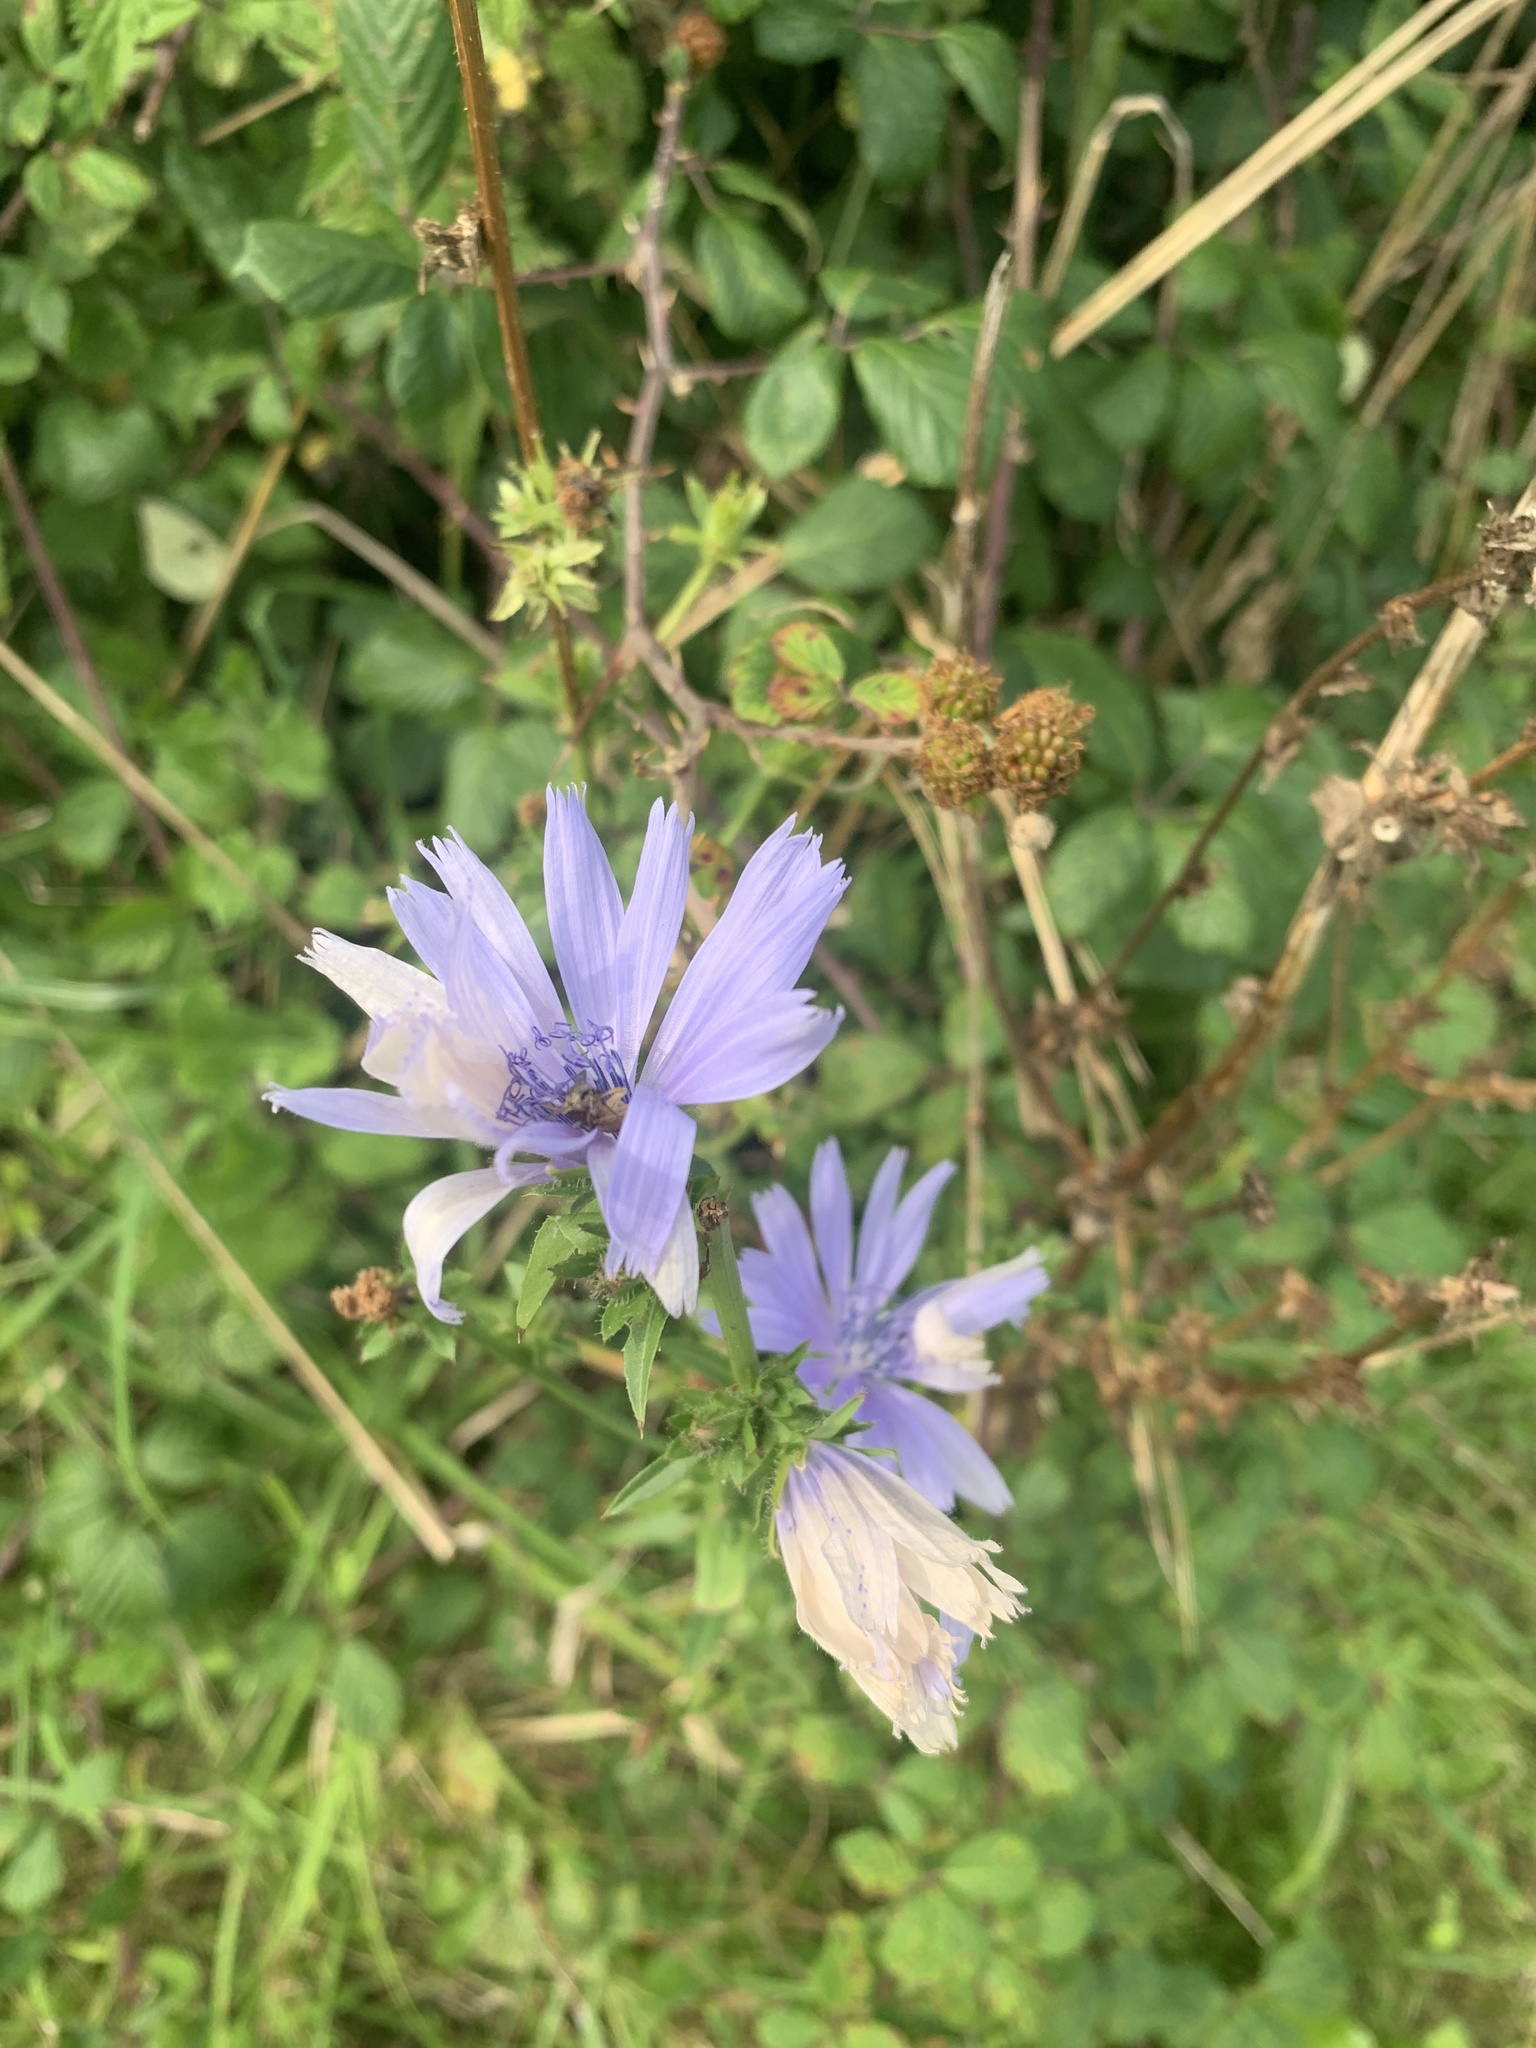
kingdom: Plantae
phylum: Tracheophyta
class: Magnoliopsida
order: Asterales
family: Asteraceae
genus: Cichorium
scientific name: Cichorium intybus
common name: Chicory
